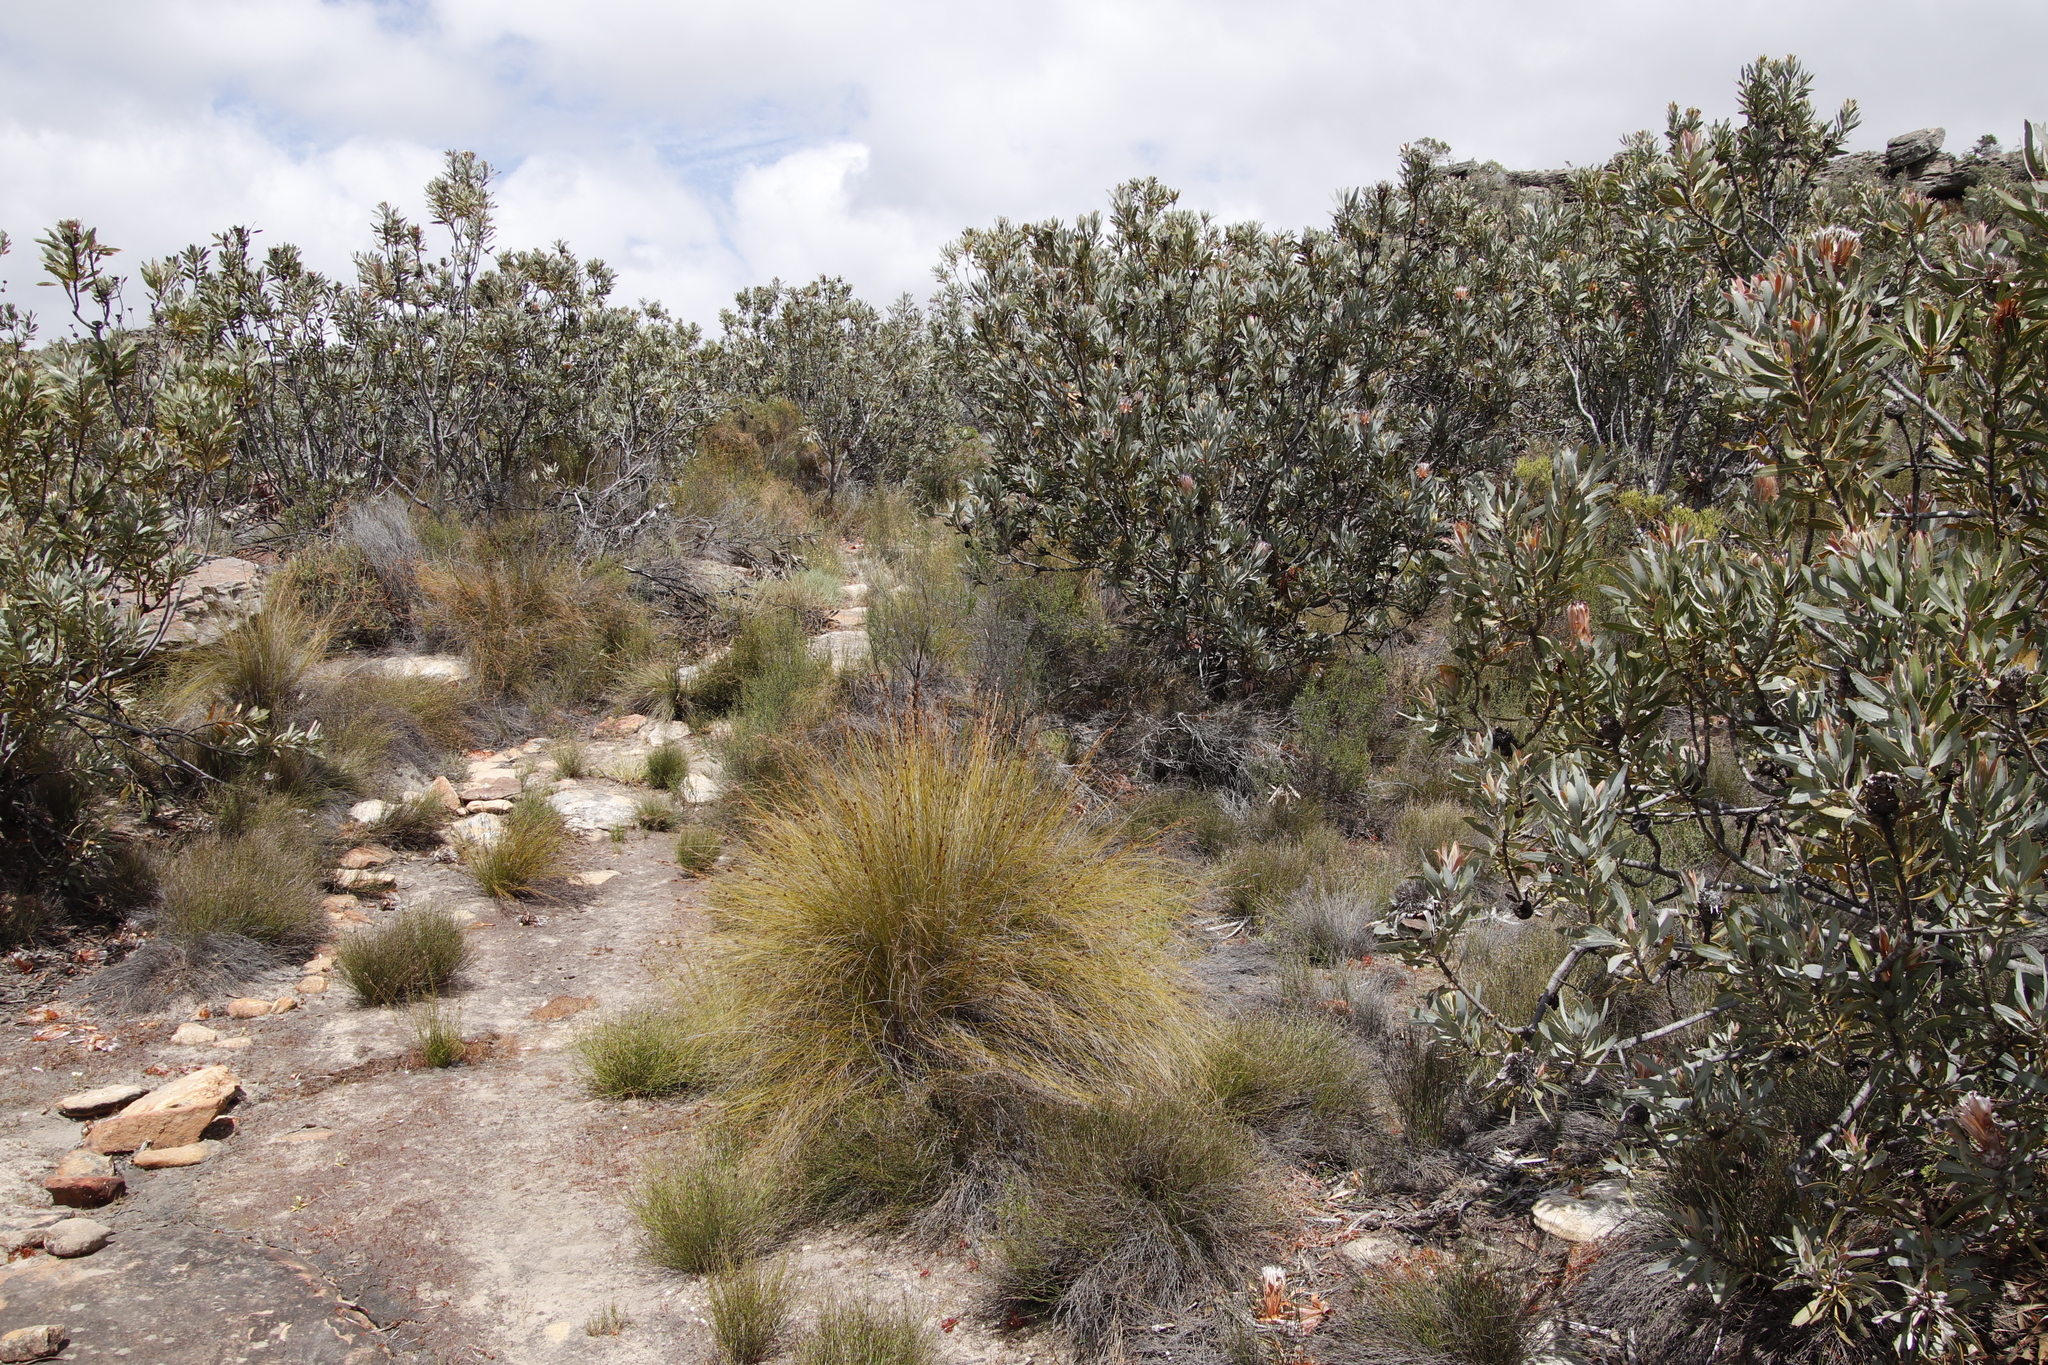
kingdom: Plantae
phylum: Tracheophyta
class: Magnoliopsida
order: Proteales
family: Proteaceae
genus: Protea
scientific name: Protea laurifolia
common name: Grey-leaf sugarbsh
